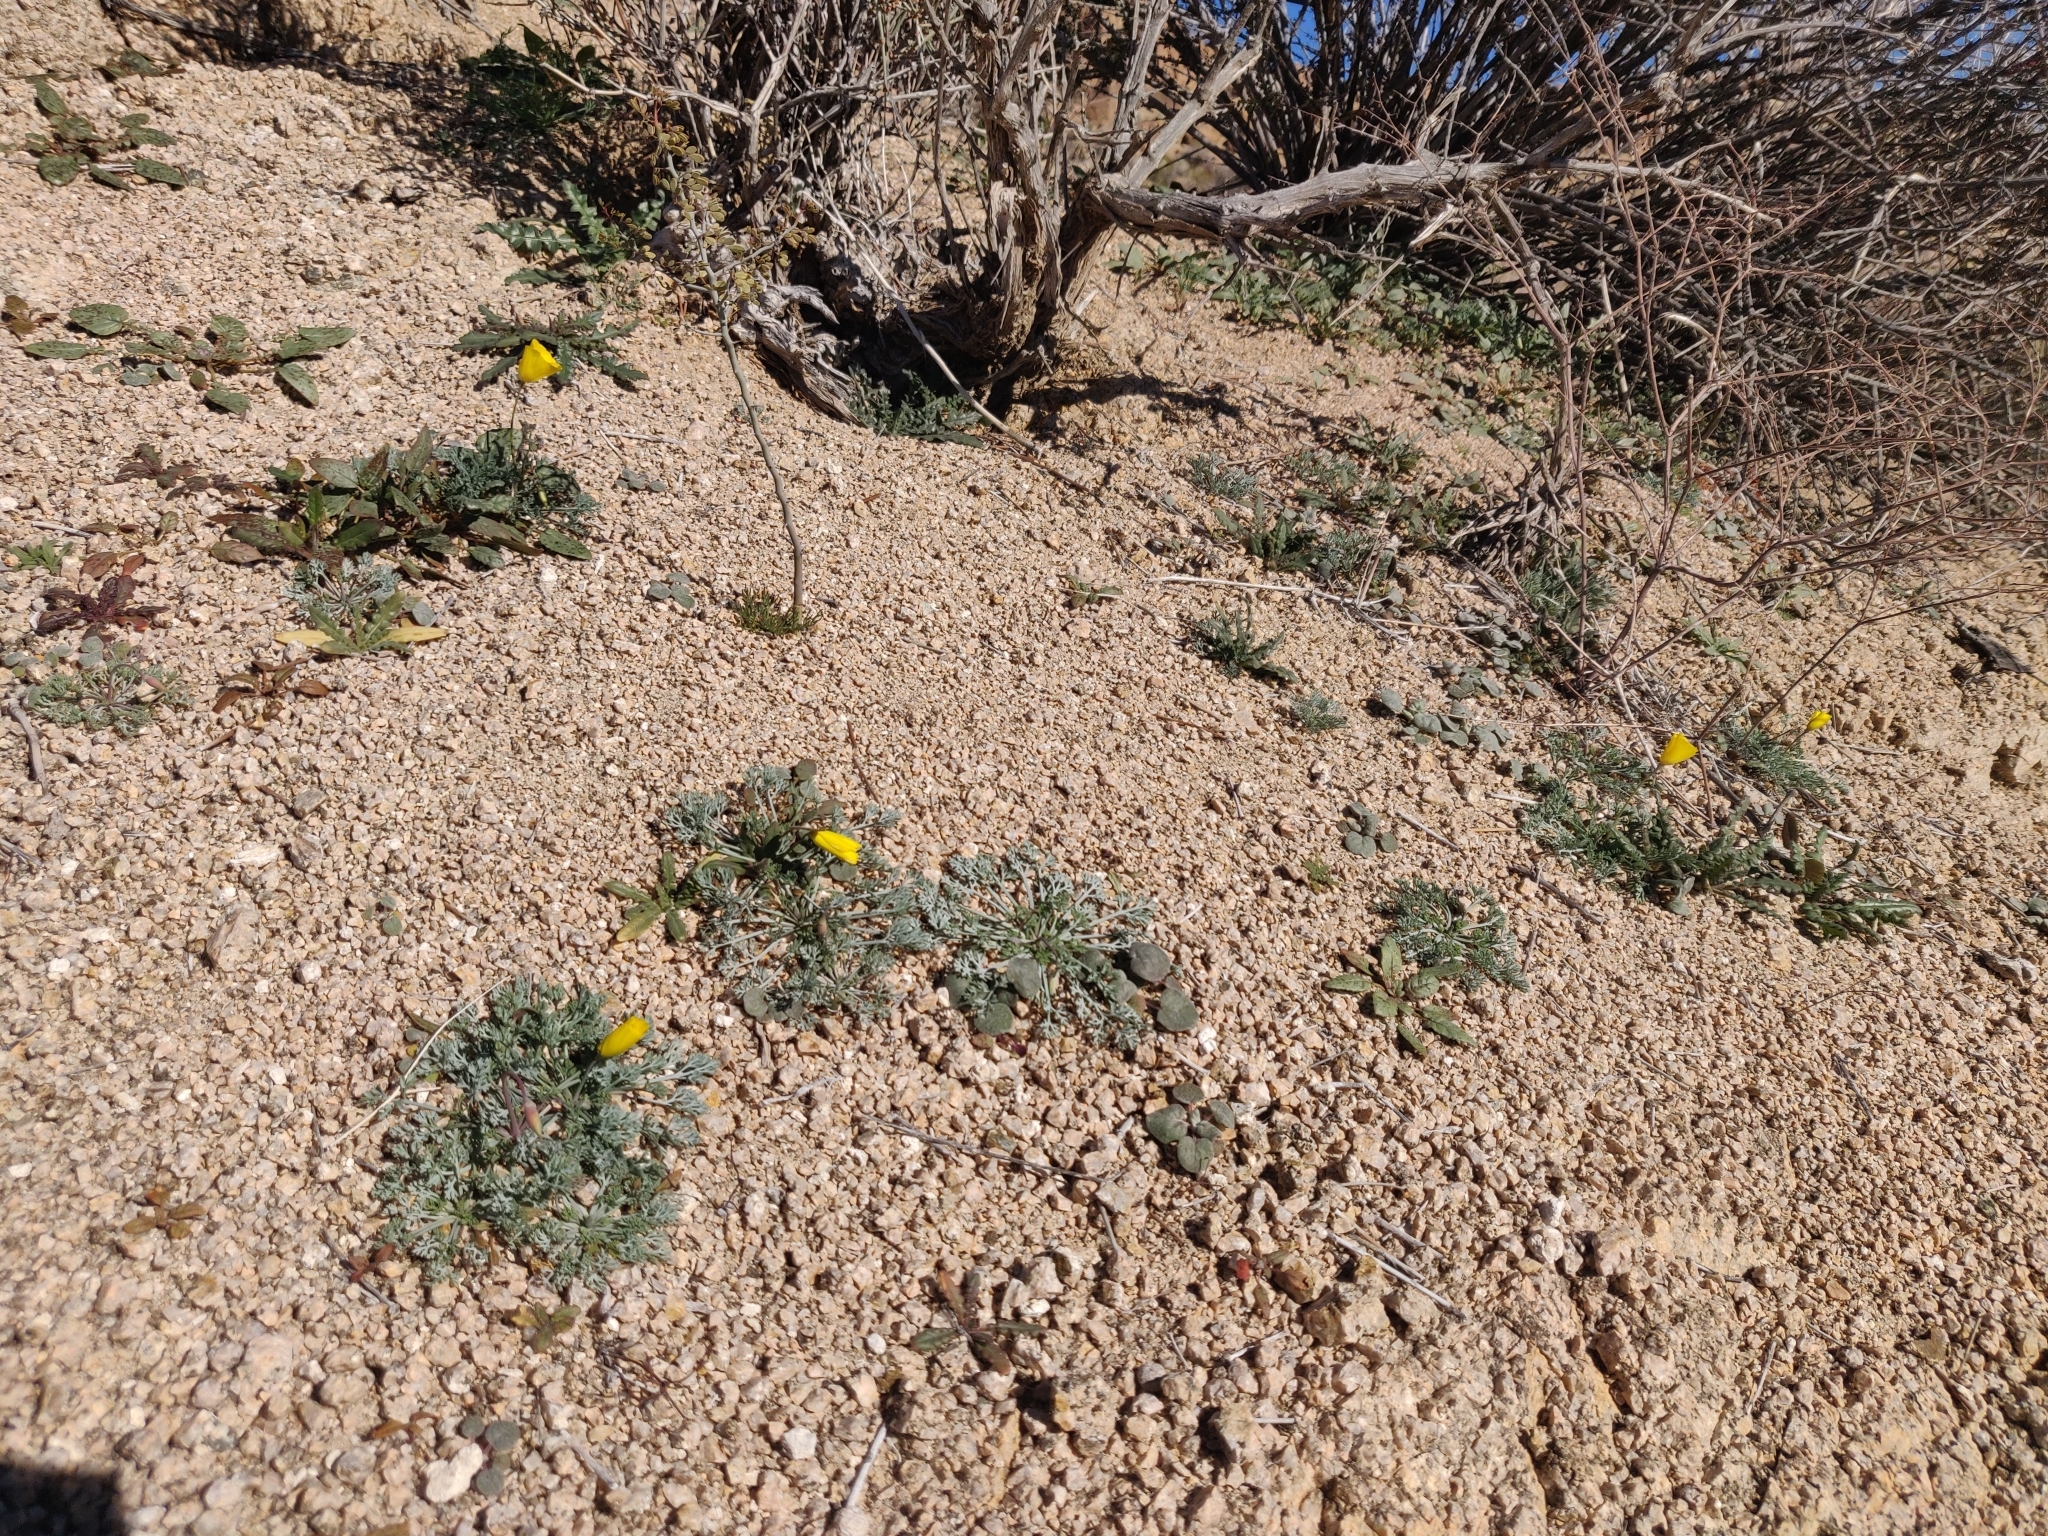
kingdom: Plantae
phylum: Tracheophyta
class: Magnoliopsida
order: Myrtales
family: Onagraceae
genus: Chylismia
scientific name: Chylismia brevipes
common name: Yellow cups
